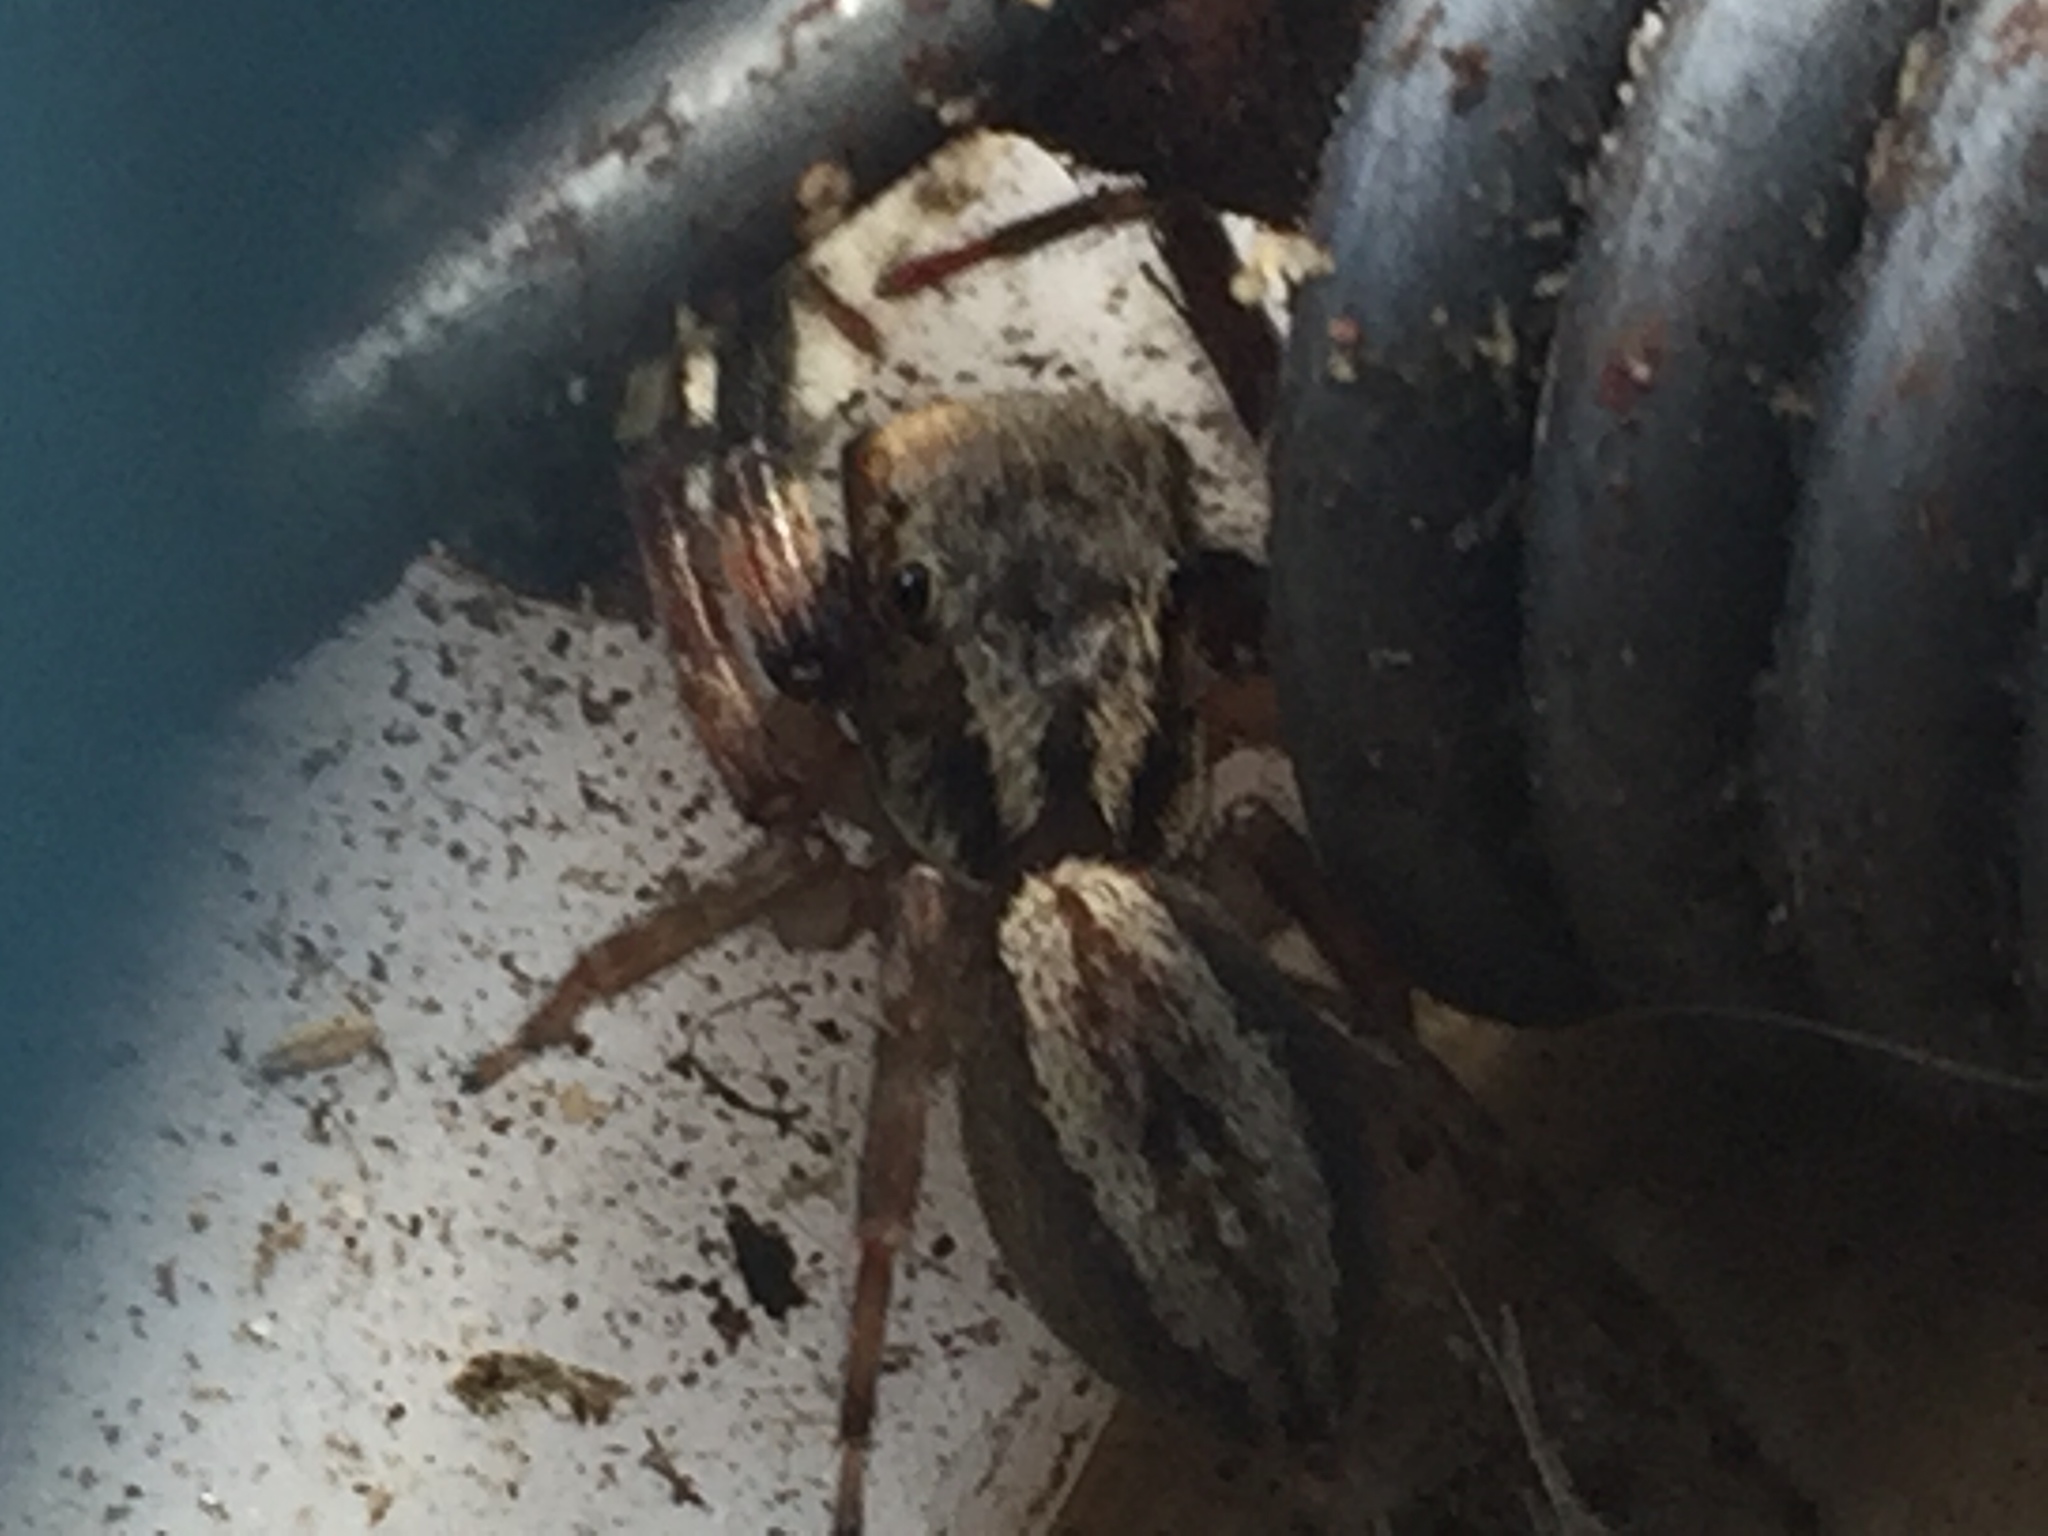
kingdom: Animalia
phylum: Arthropoda
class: Arachnida
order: Araneae
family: Salticidae
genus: Trite
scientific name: Trite auricoma
